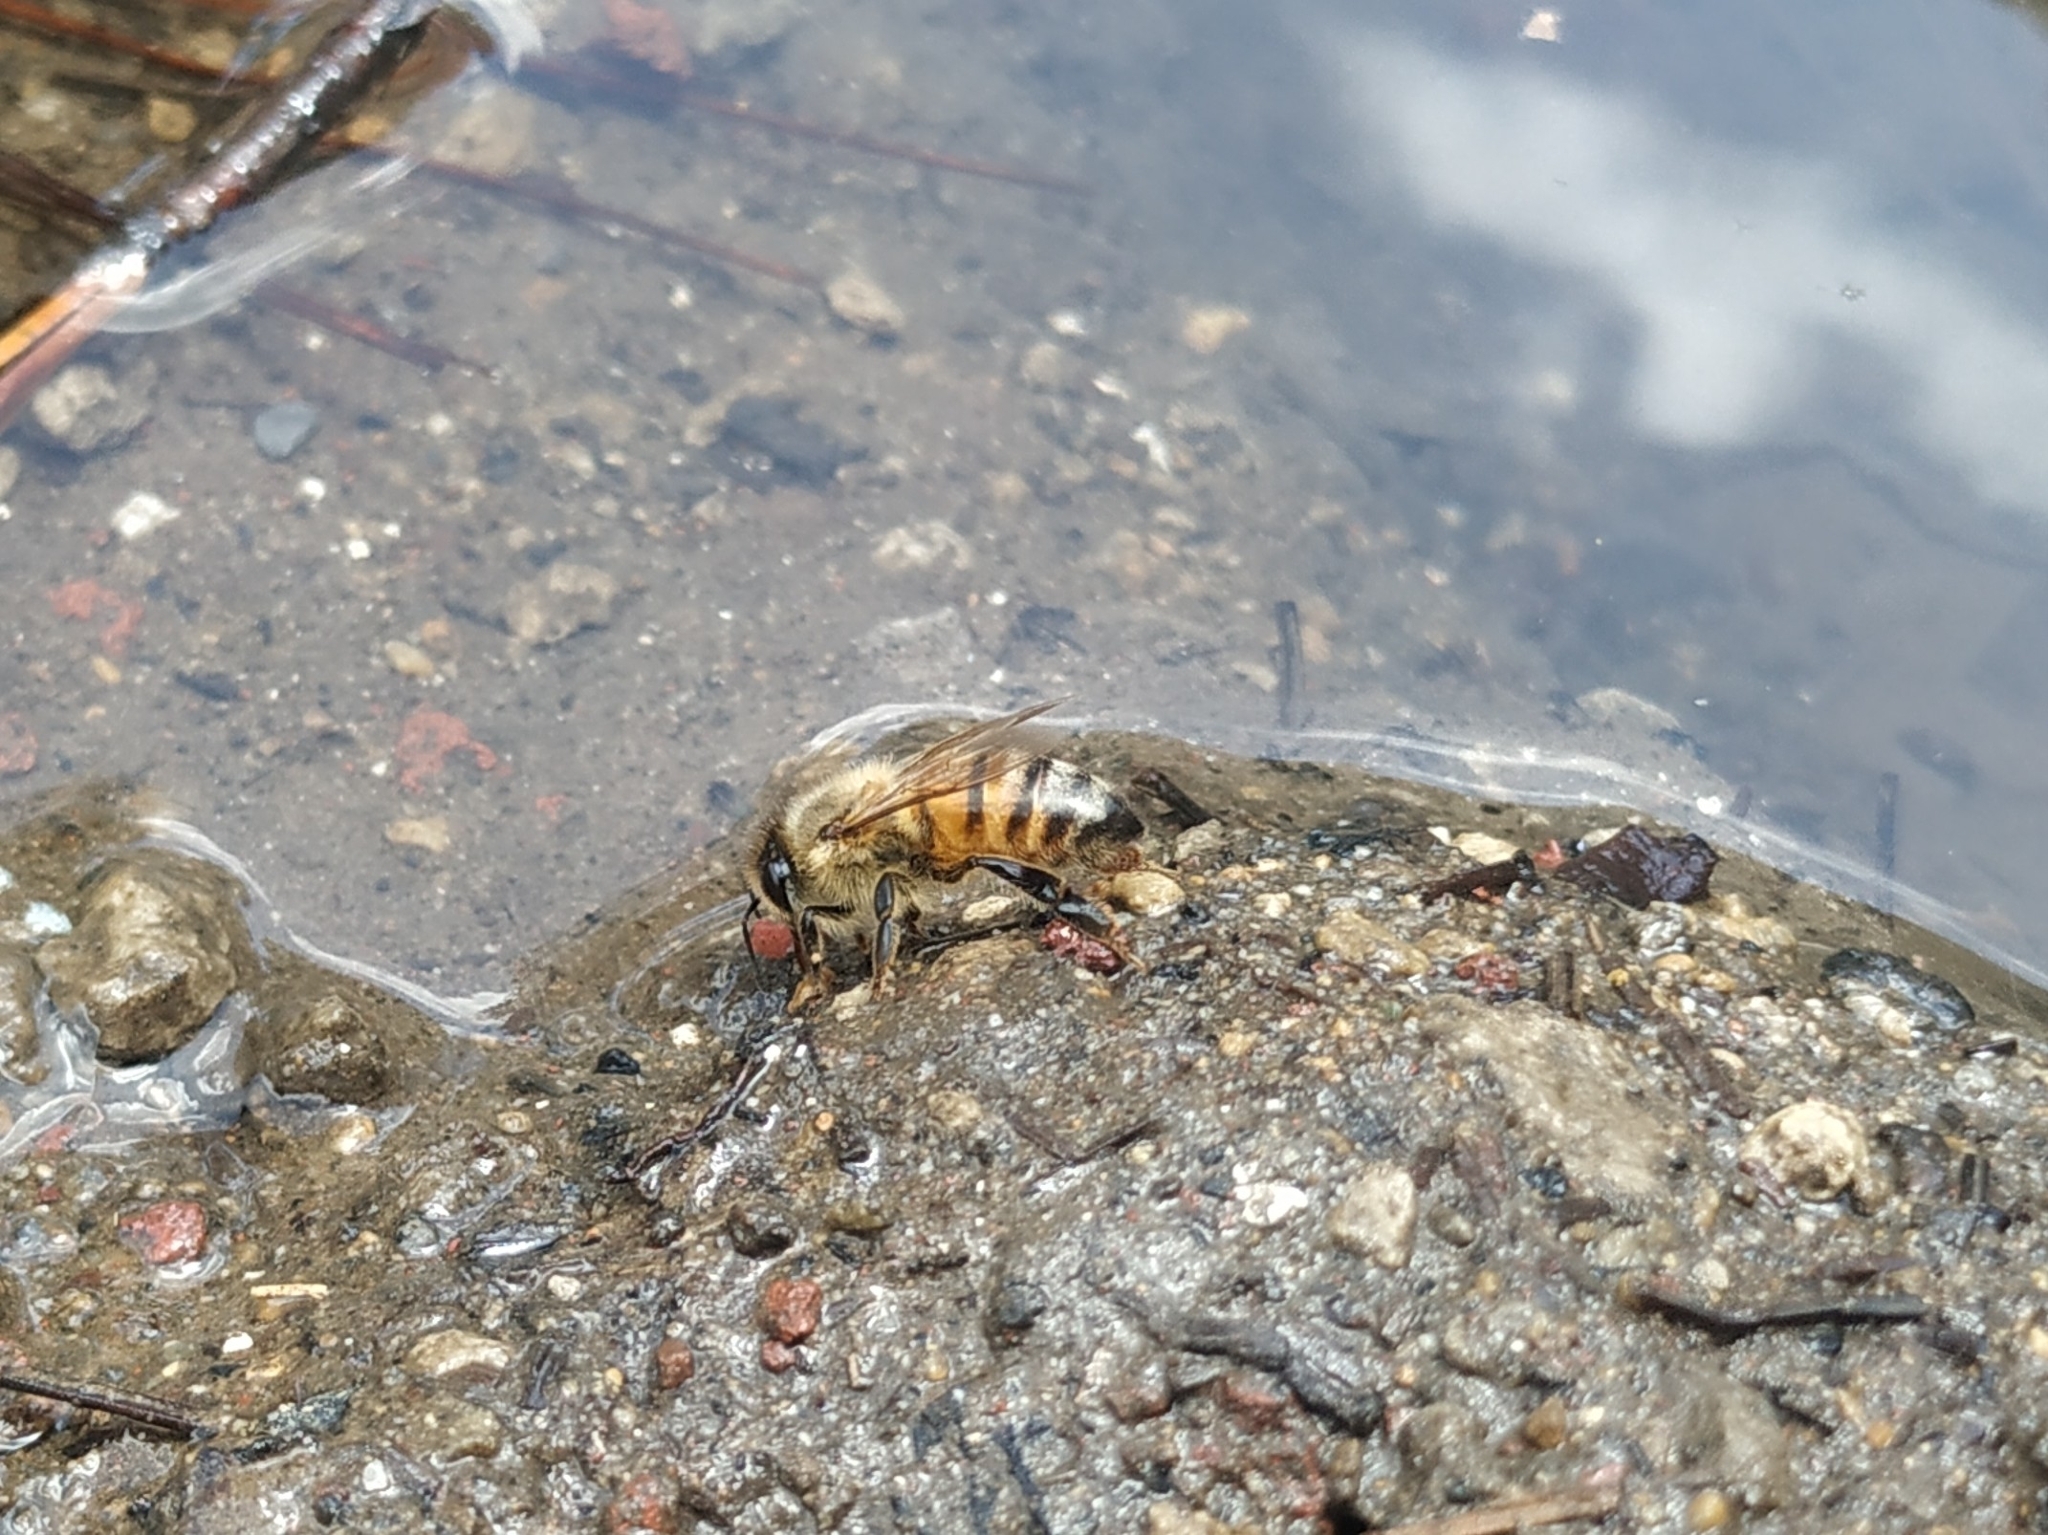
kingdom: Animalia
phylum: Arthropoda
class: Insecta
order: Hymenoptera
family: Apidae
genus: Apis
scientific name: Apis mellifera
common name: Honey bee
